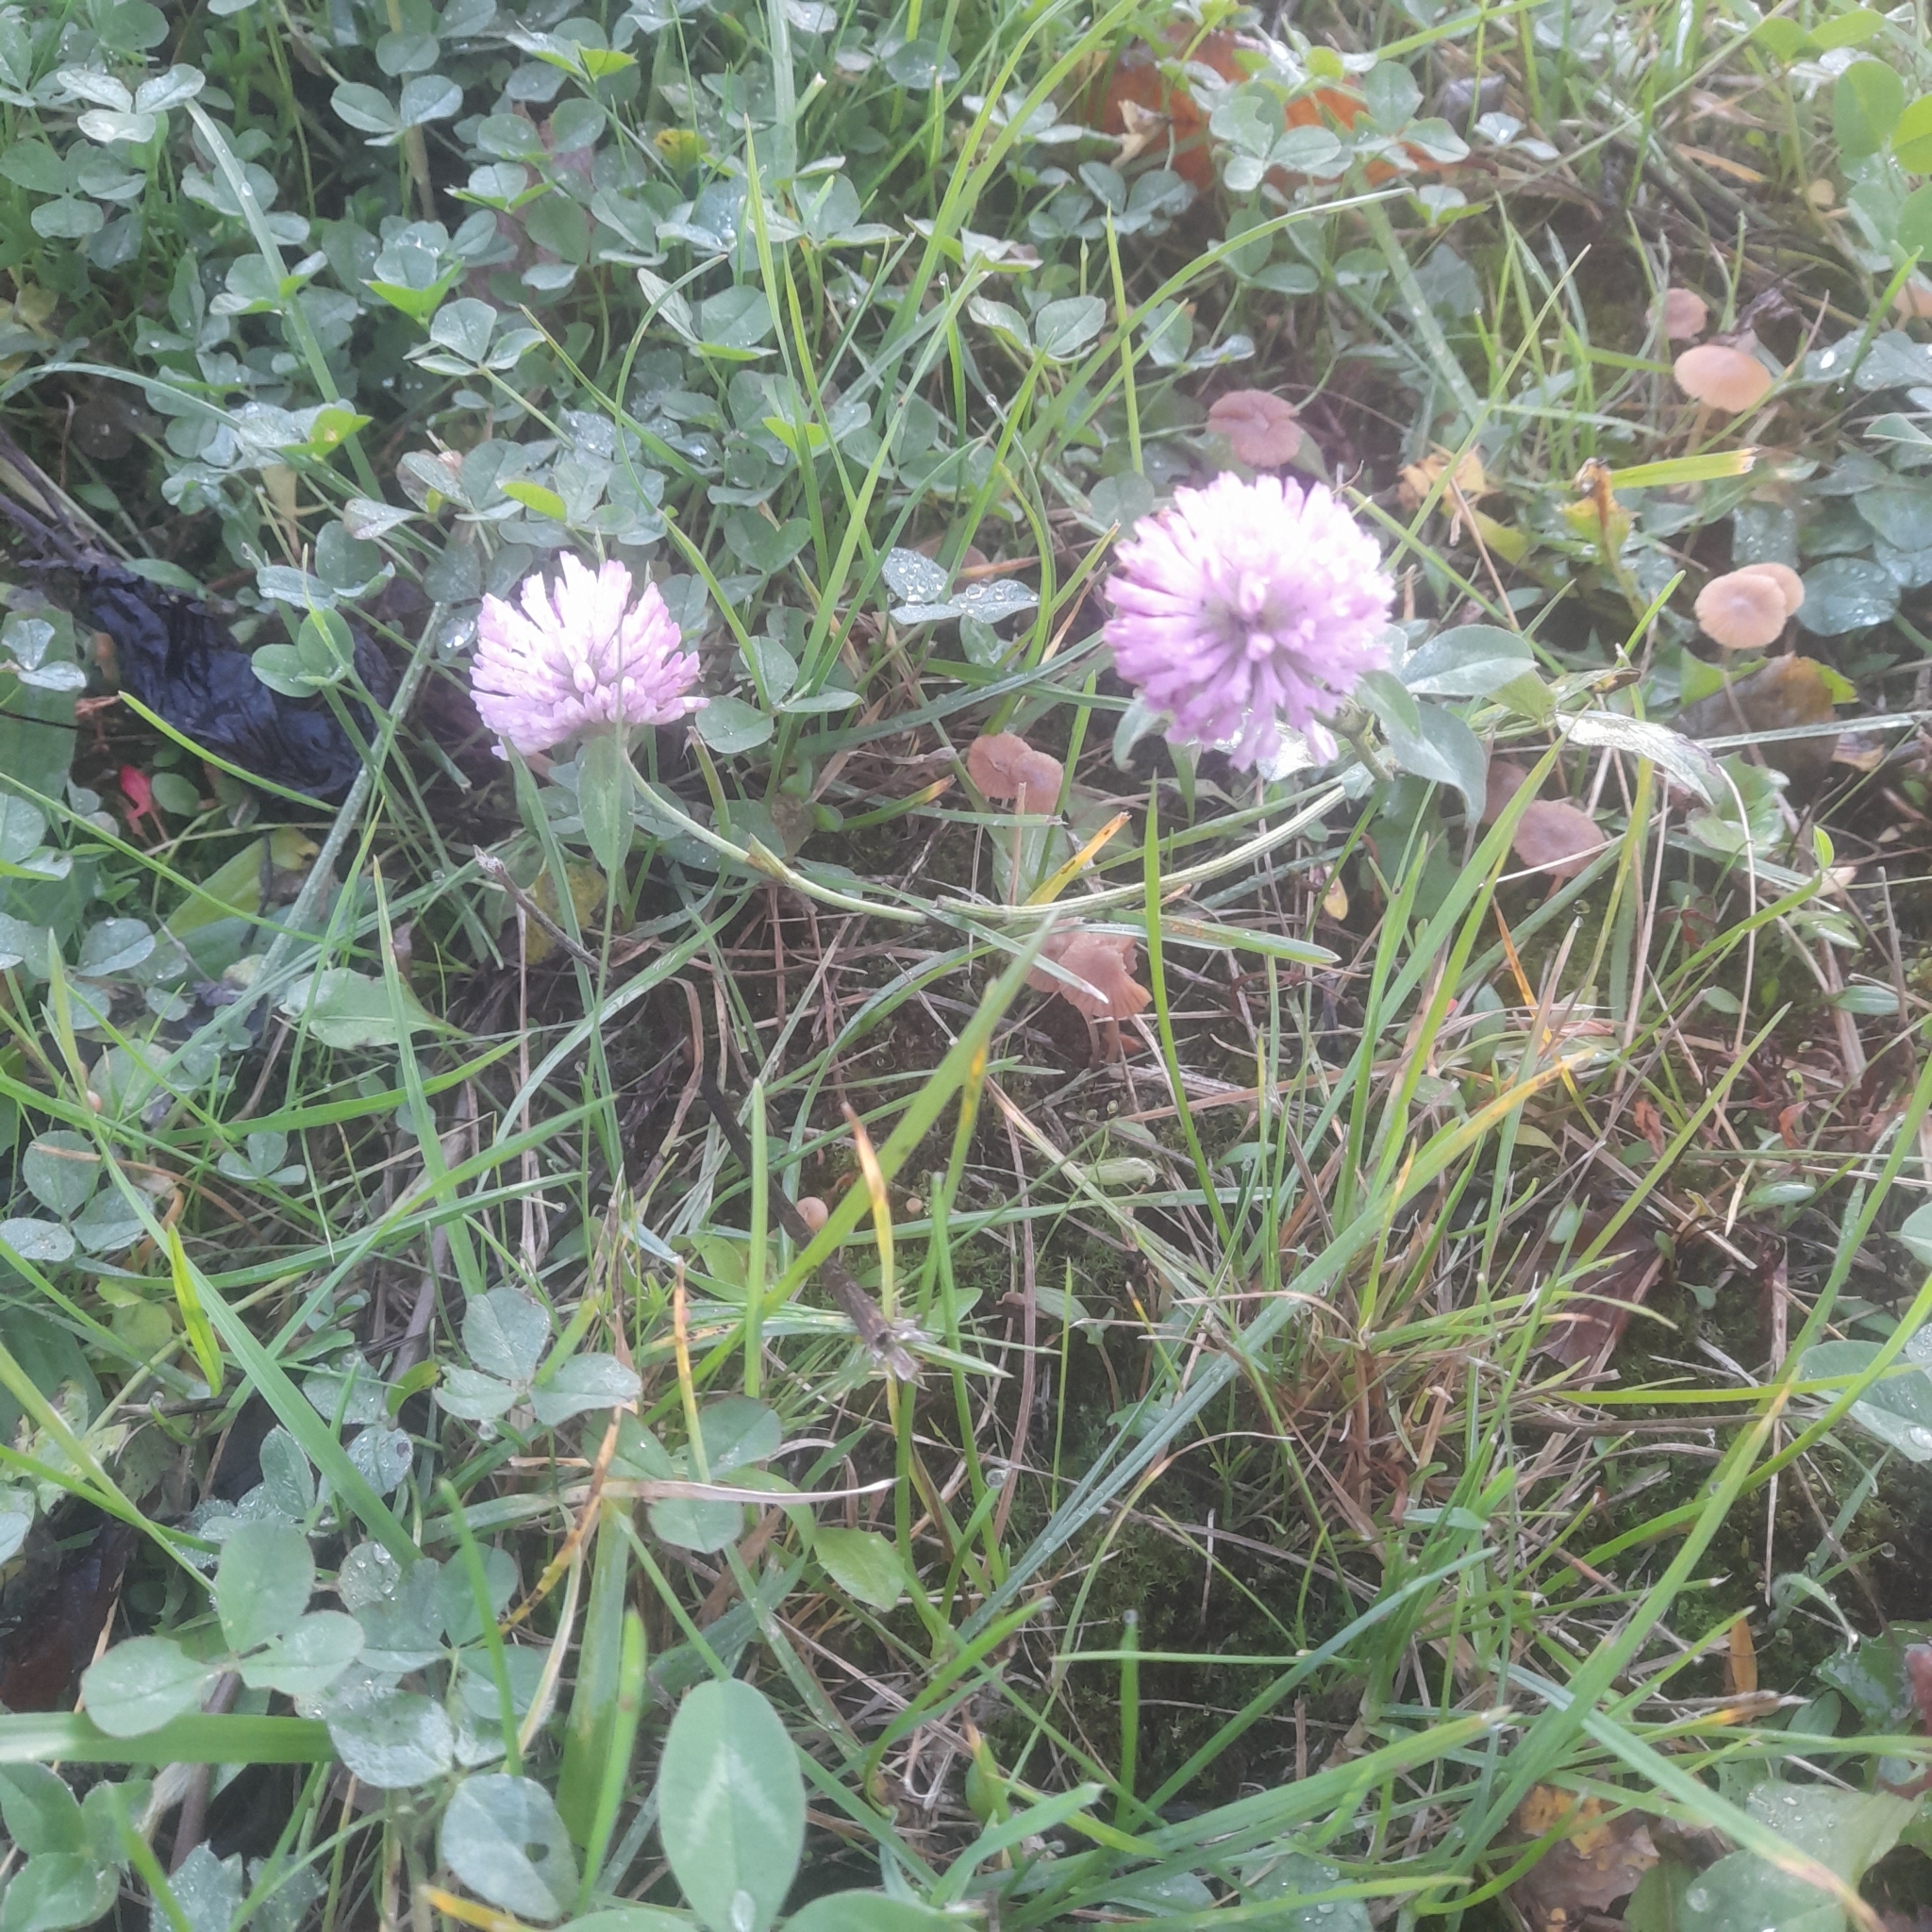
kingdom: Plantae
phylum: Tracheophyta
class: Magnoliopsida
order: Fabales
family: Fabaceae
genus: Trifolium
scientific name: Trifolium pratense
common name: Red clover
